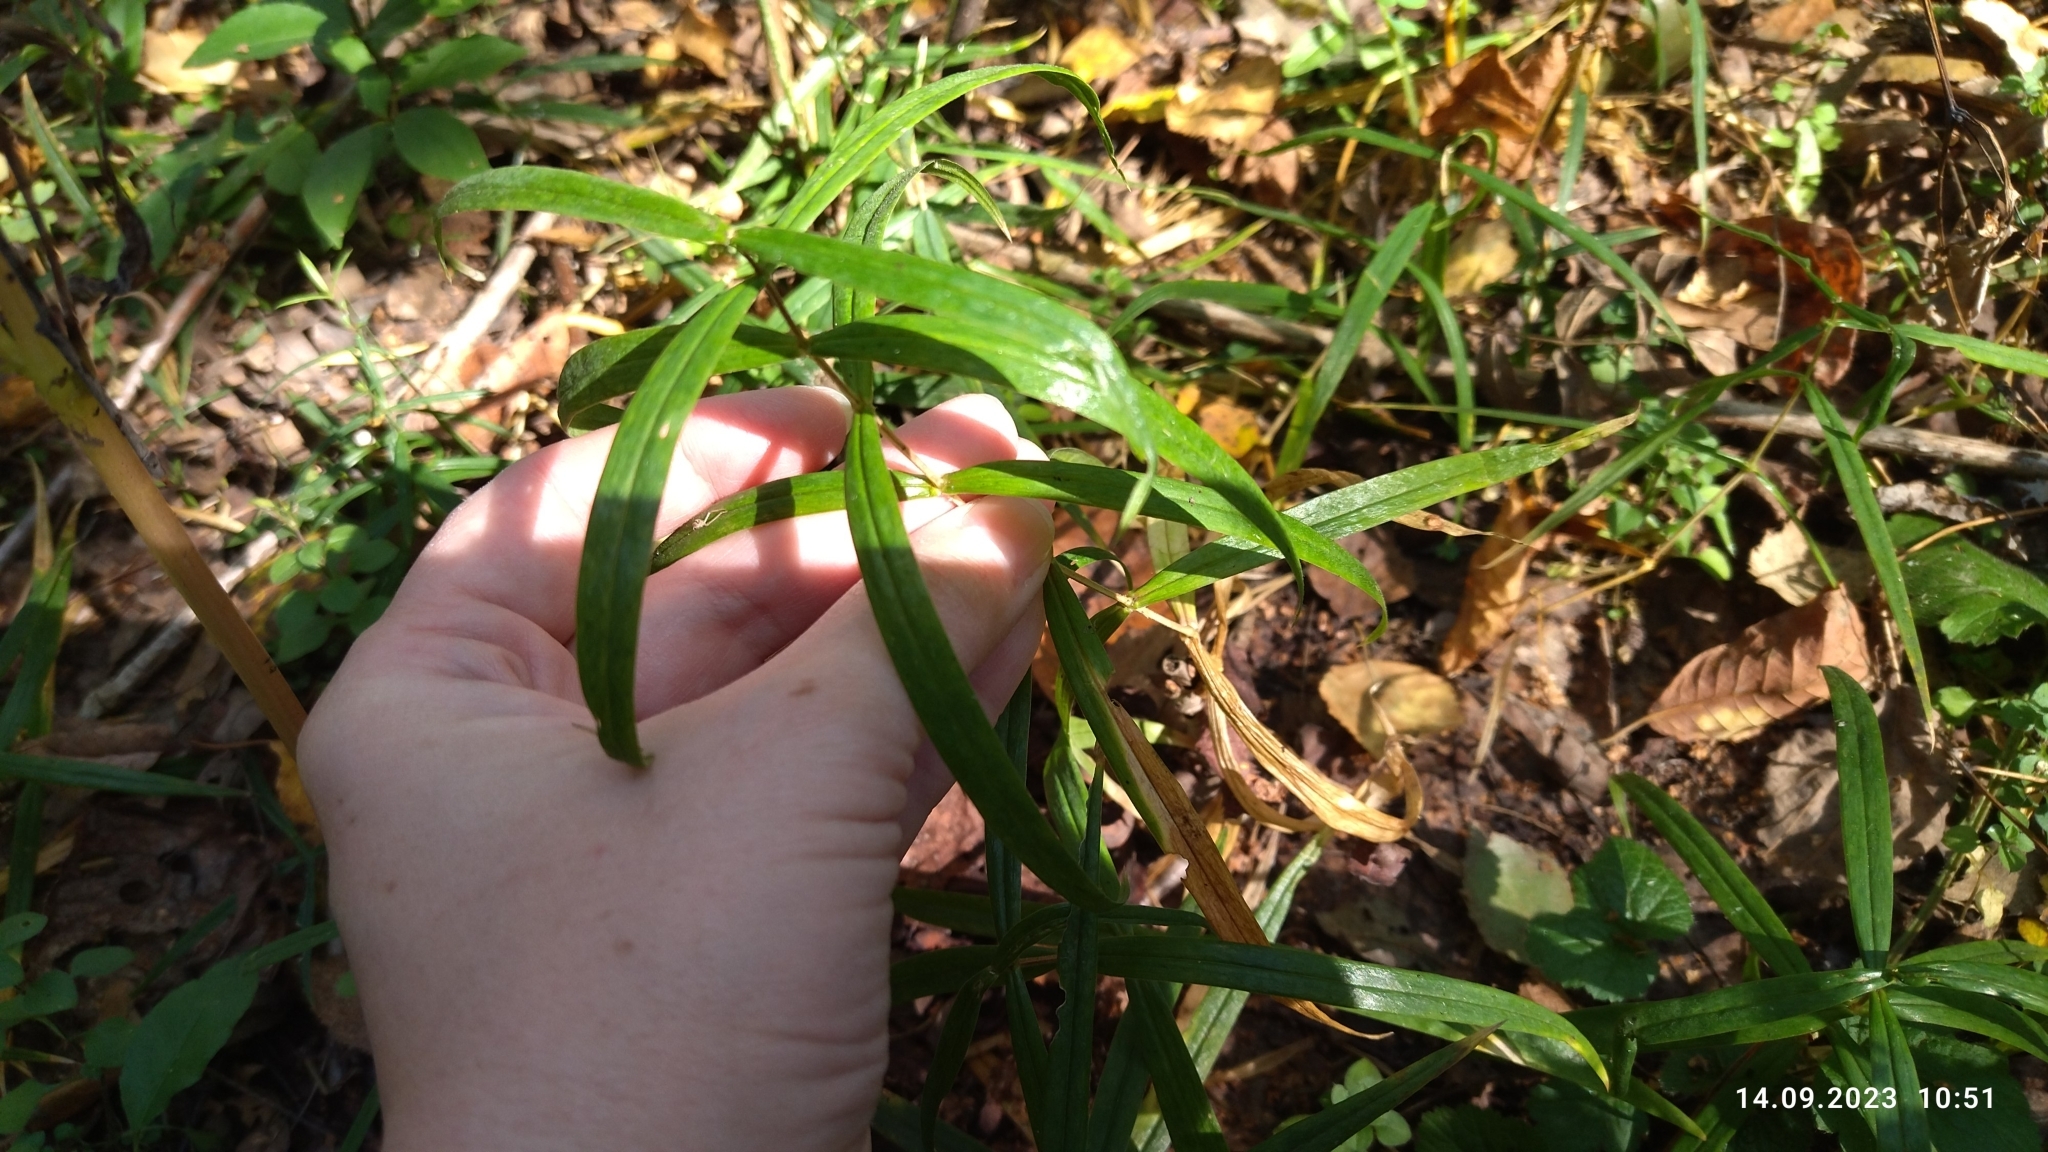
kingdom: Plantae
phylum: Tracheophyta
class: Magnoliopsida
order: Caryophyllales
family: Caryophyllaceae
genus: Rabelera
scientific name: Rabelera holostea
